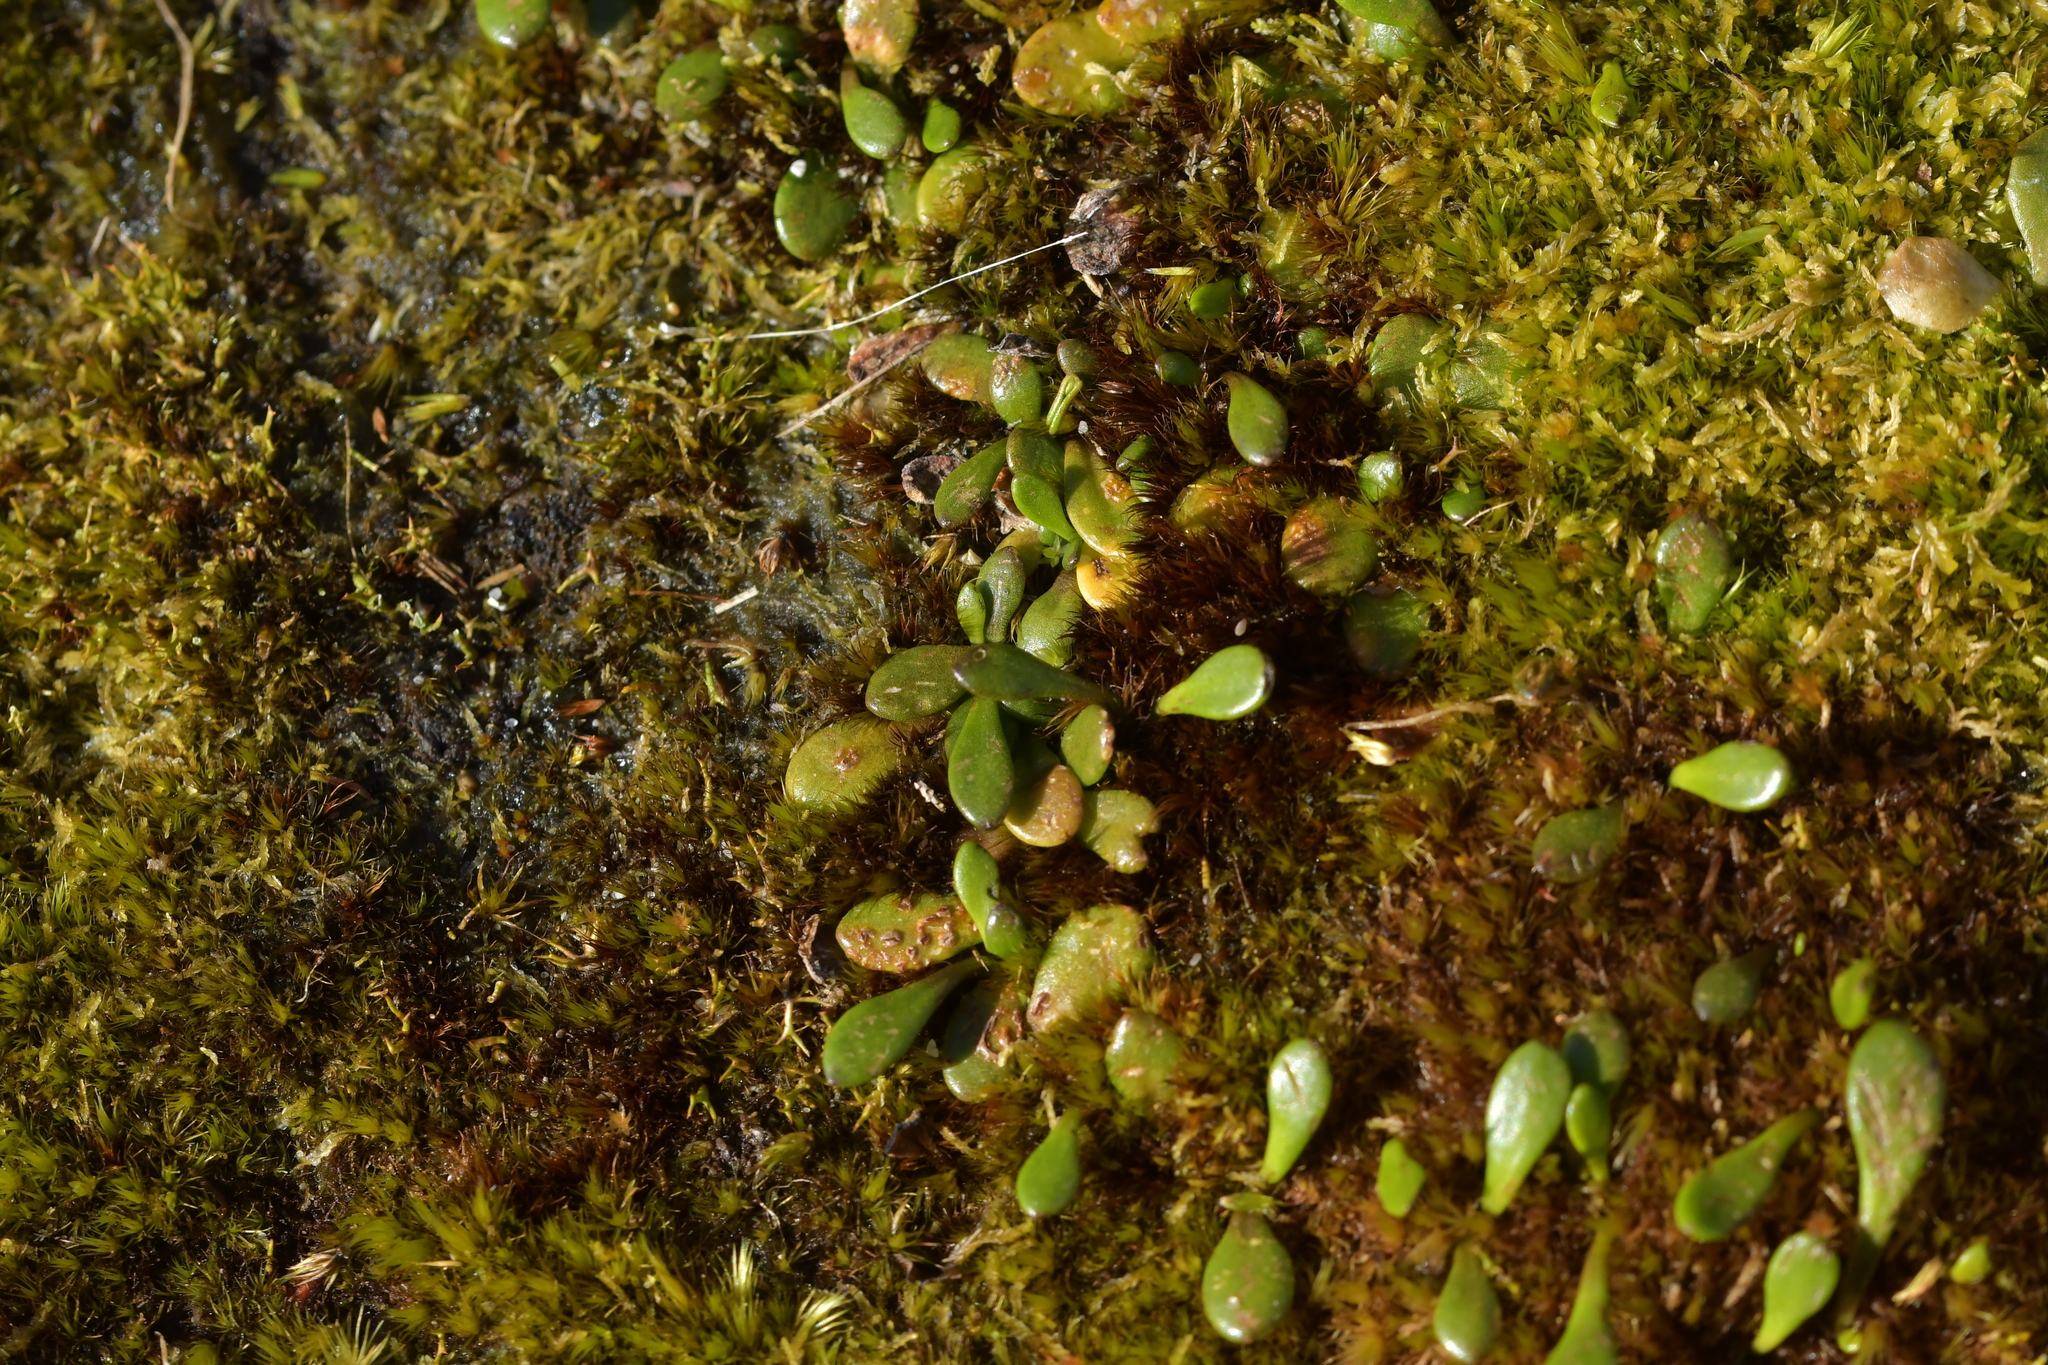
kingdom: Plantae
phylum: Tracheophyta
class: Magnoliopsida
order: Asterales
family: Goodeniaceae
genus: Goodenia
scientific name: Goodenia radicans
